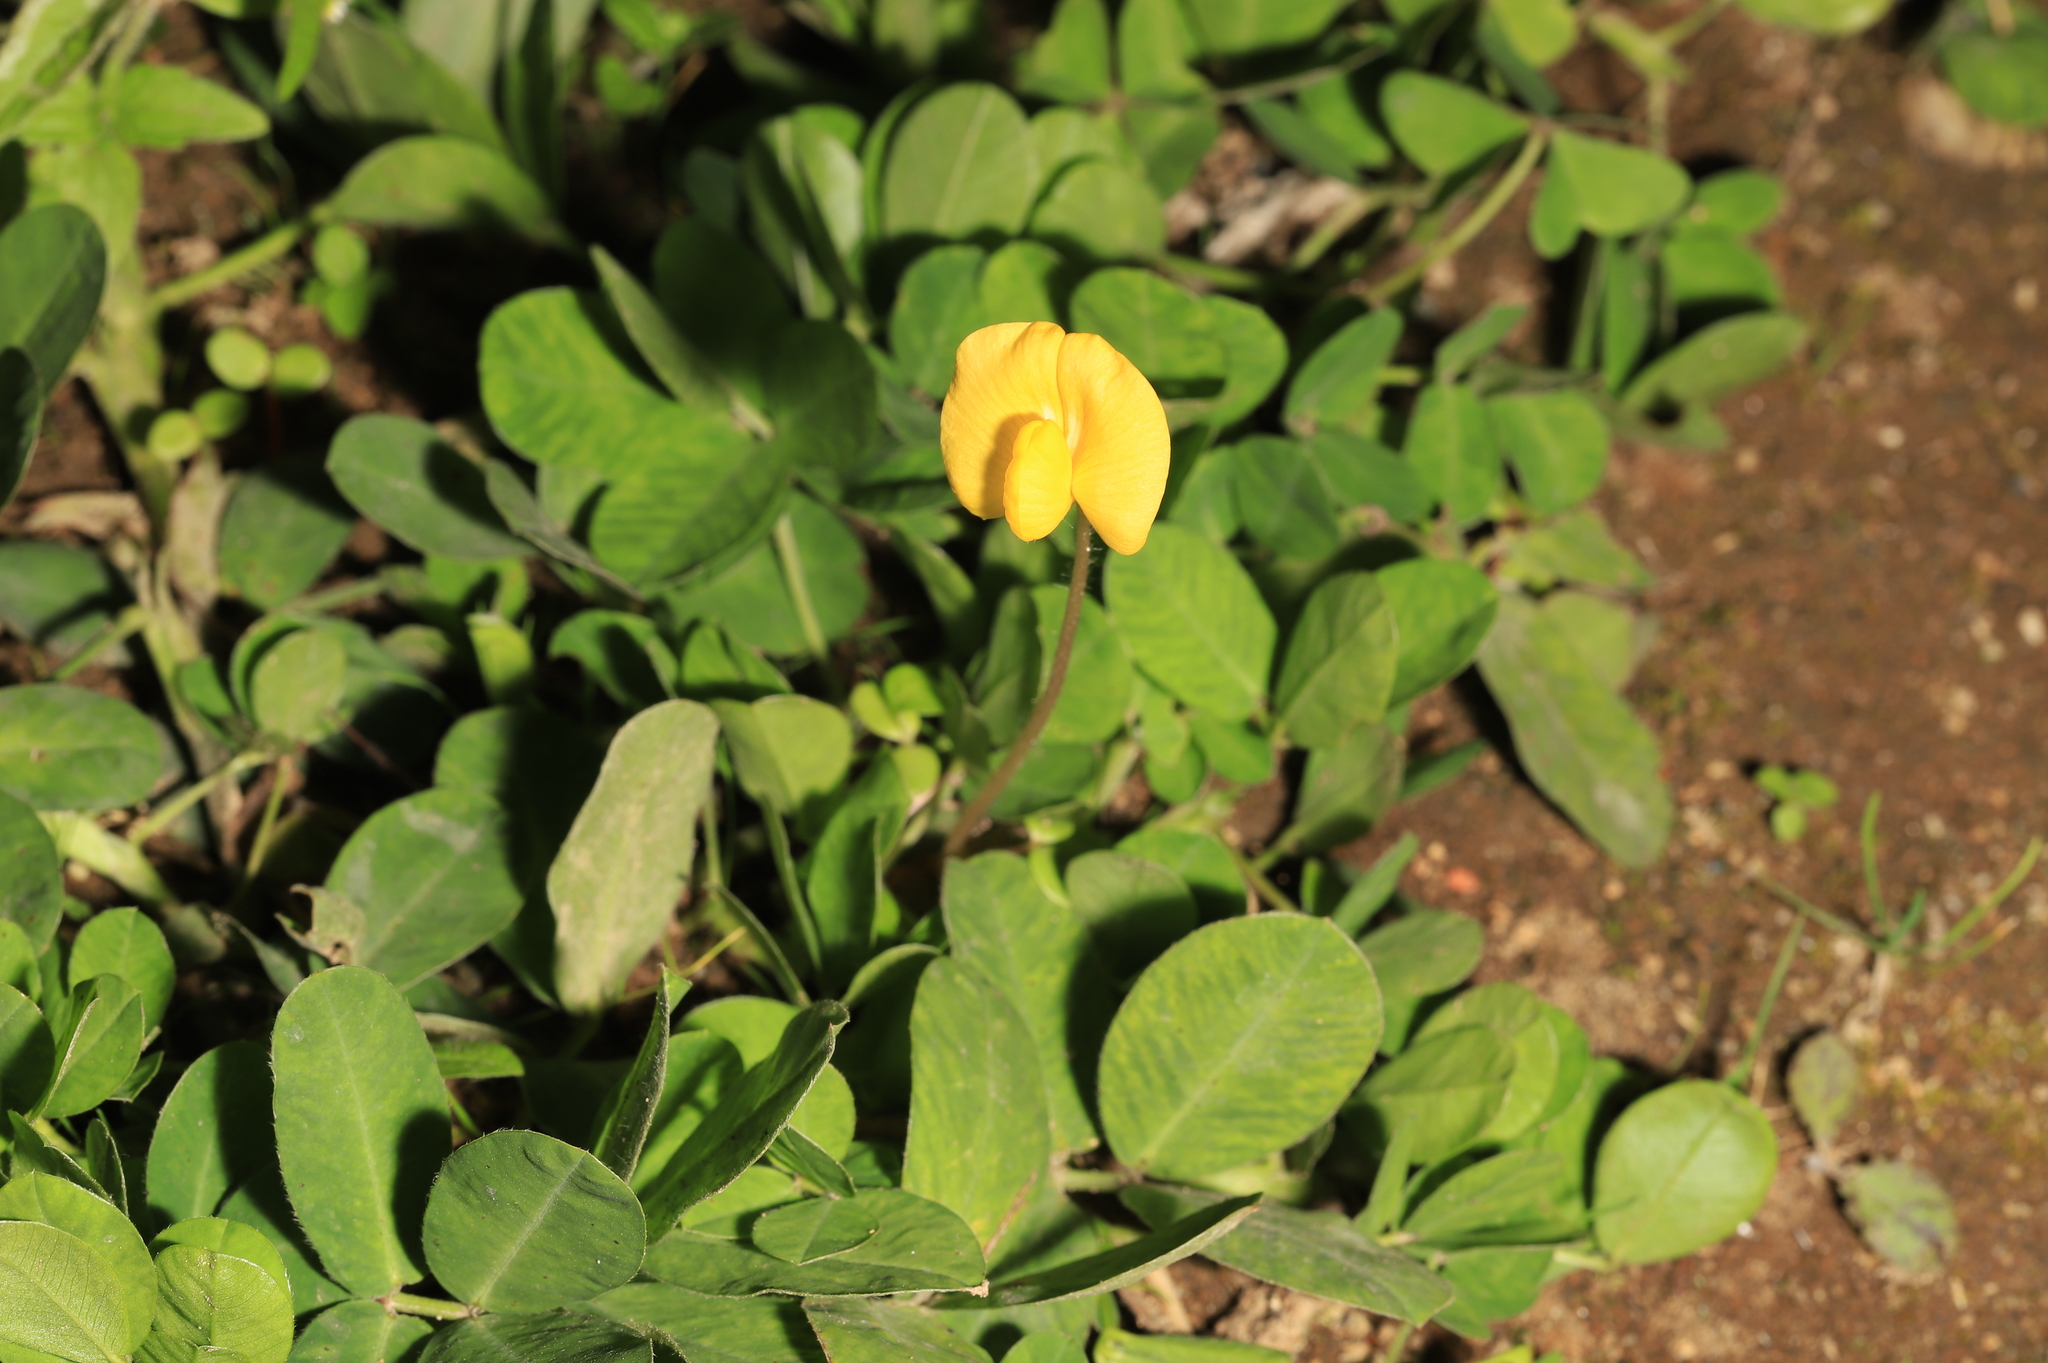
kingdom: Plantae
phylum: Tracheophyta
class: Magnoliopsida
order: Fabales
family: Fabaceae
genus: Arachis
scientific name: Arachis pintoi
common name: Pinto peanut
